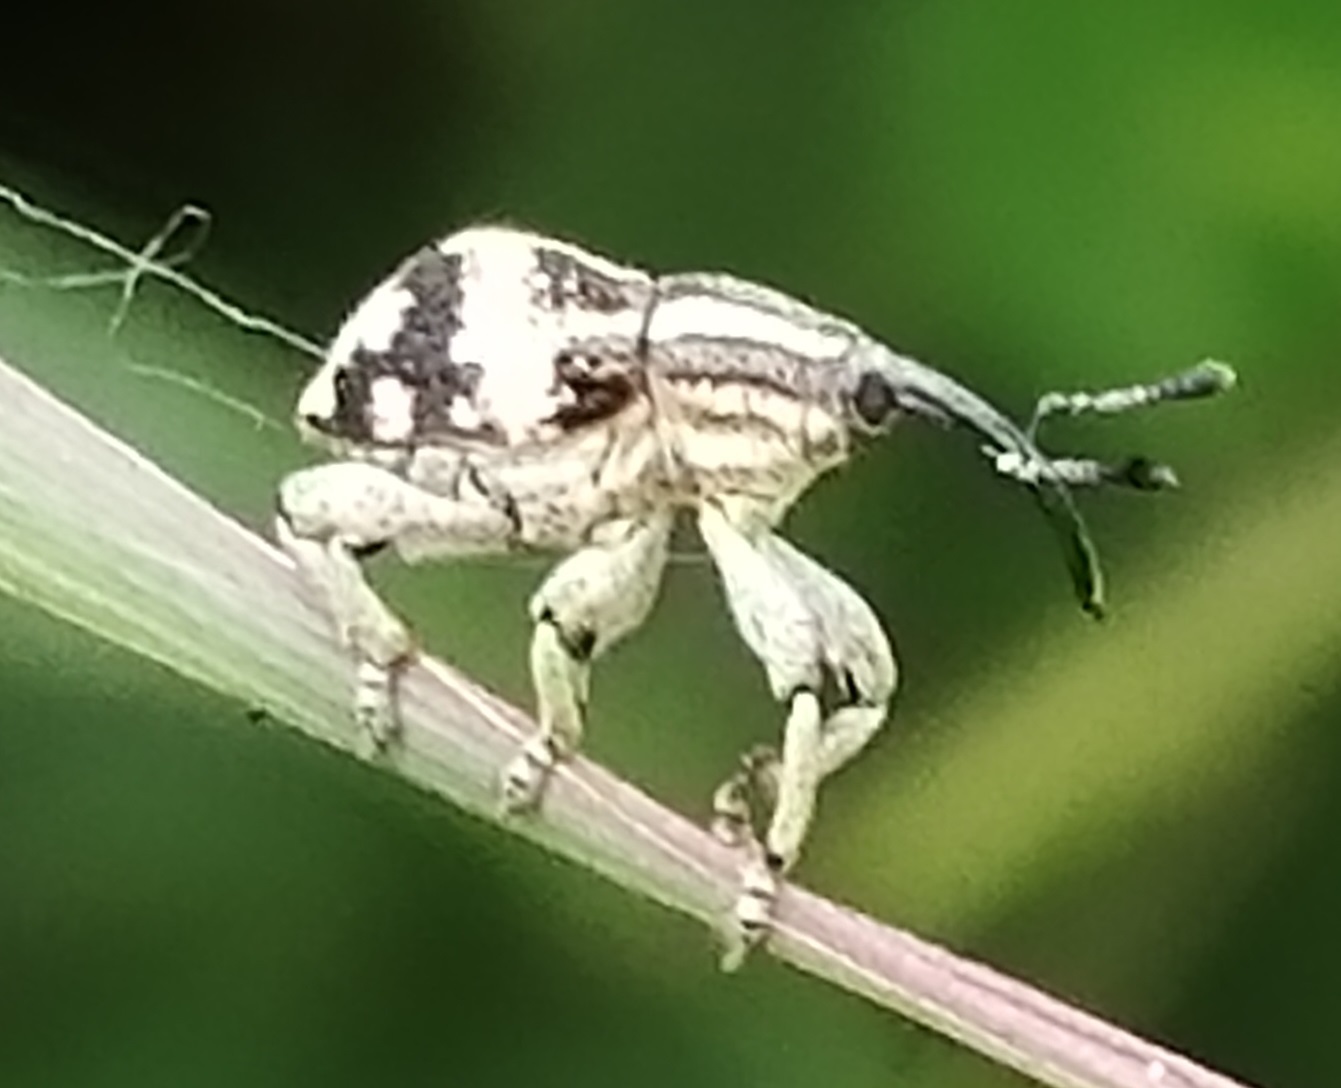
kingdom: Animalia
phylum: Arthropoda
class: Insecta
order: Coleoptera
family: Curculionidae
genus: Ergania
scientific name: Ergania siamensis
